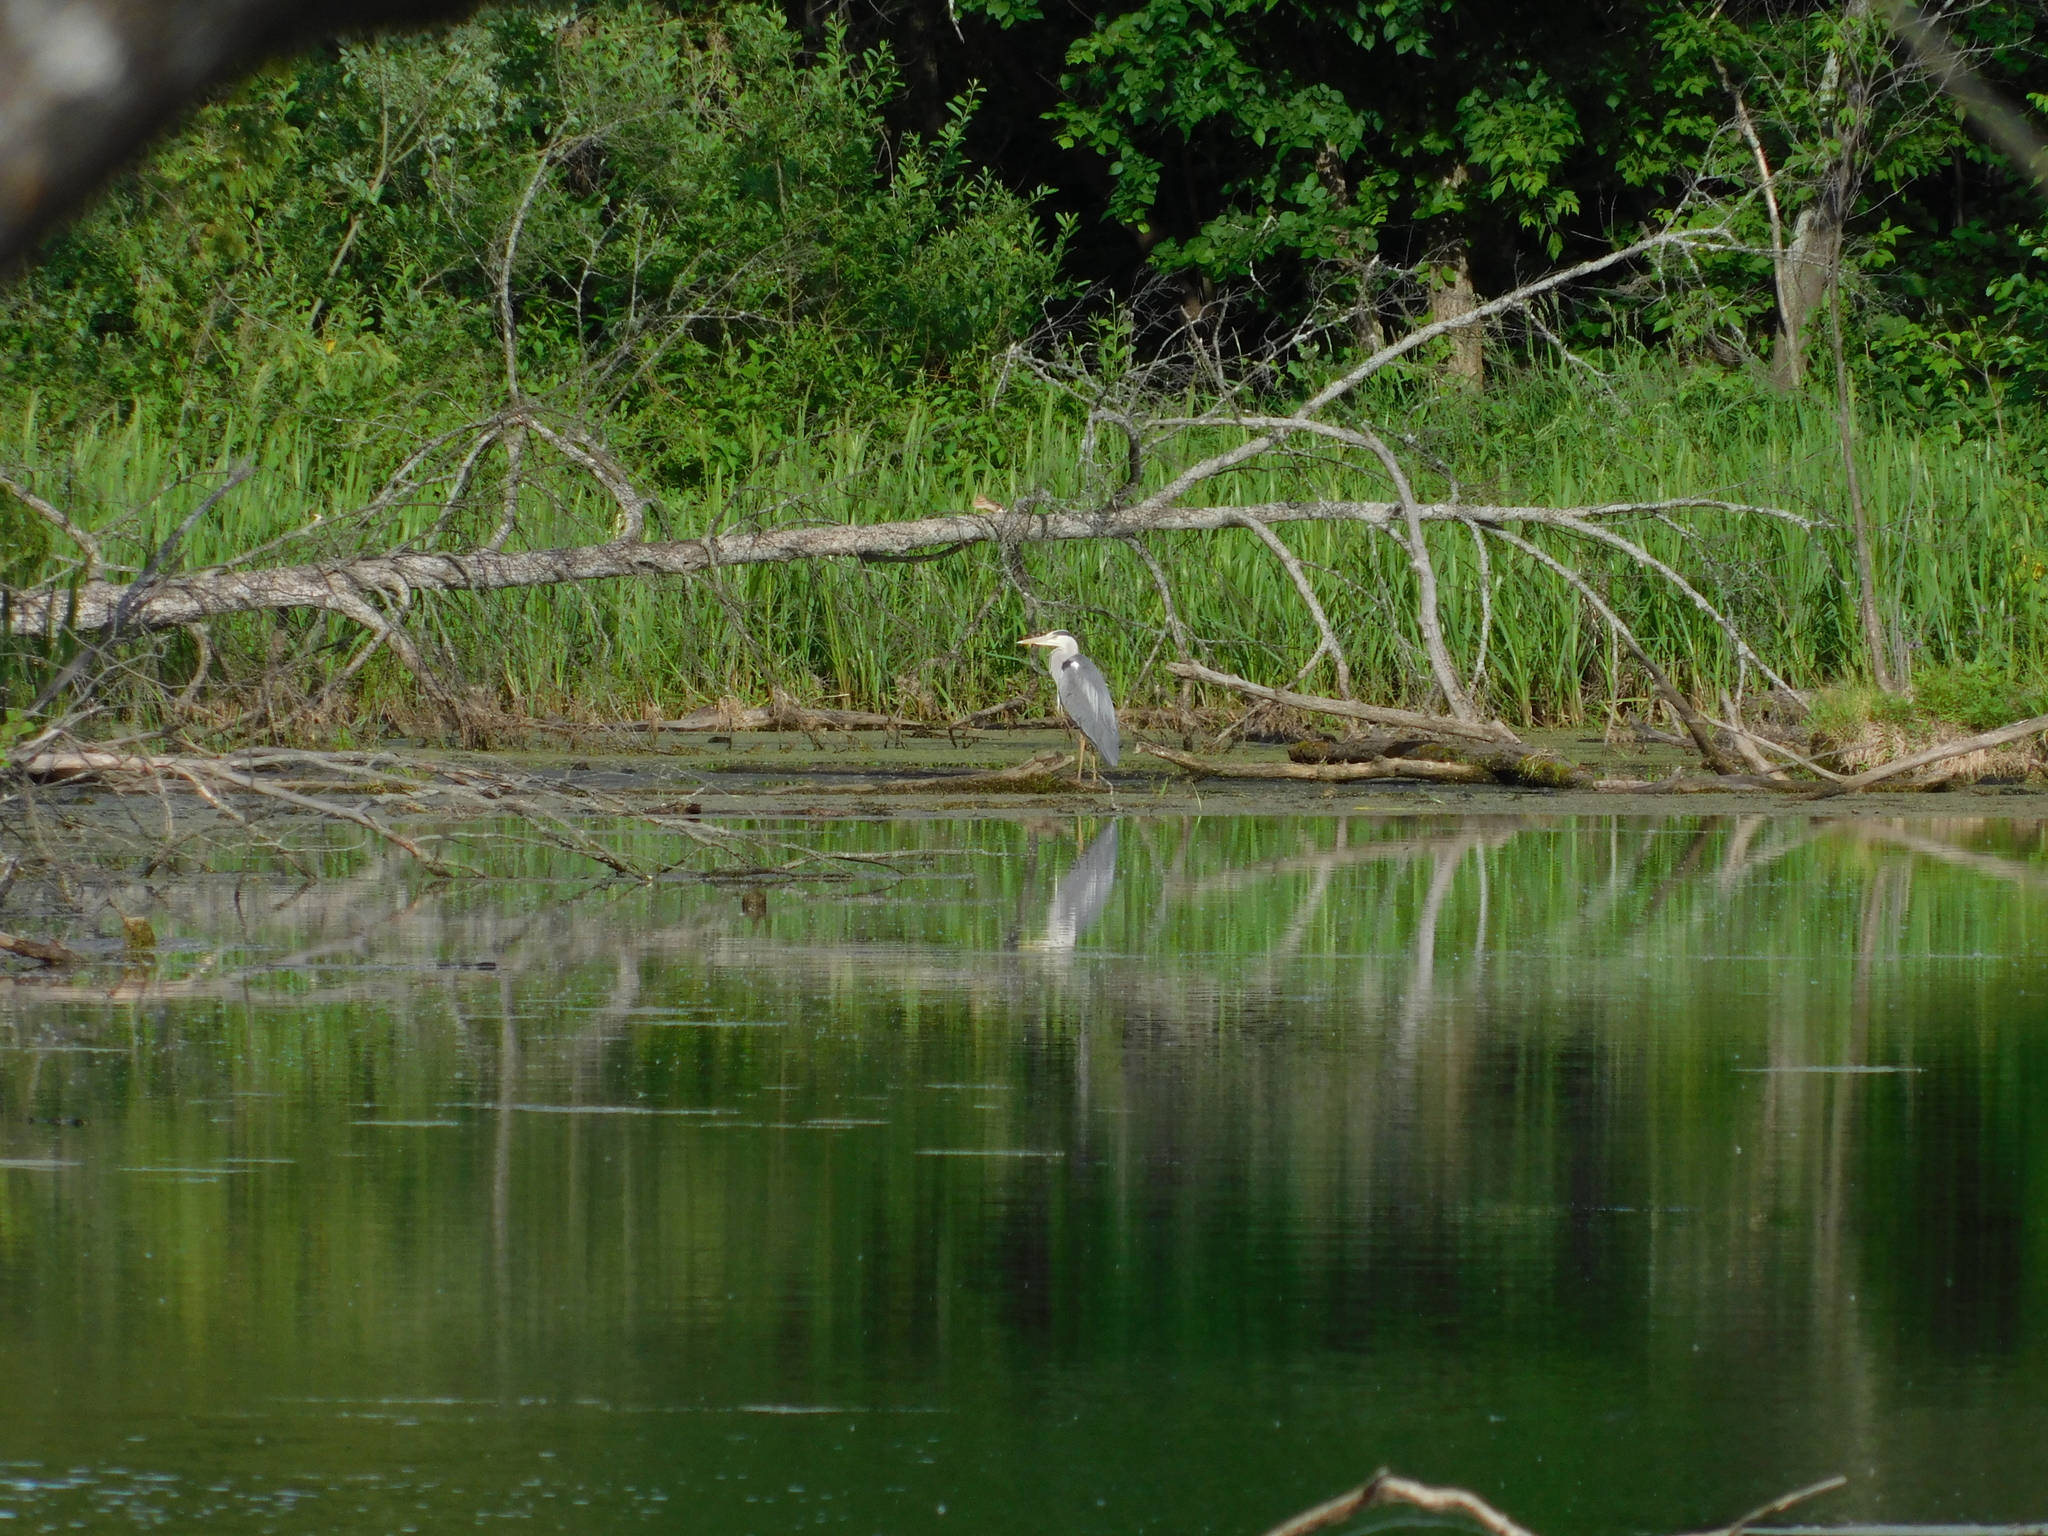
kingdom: Animalia
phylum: Chordata
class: Aves
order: Pelecaniformes
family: Ardeidae
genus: Ardea
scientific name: Ardea cinerea
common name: Grey heron
